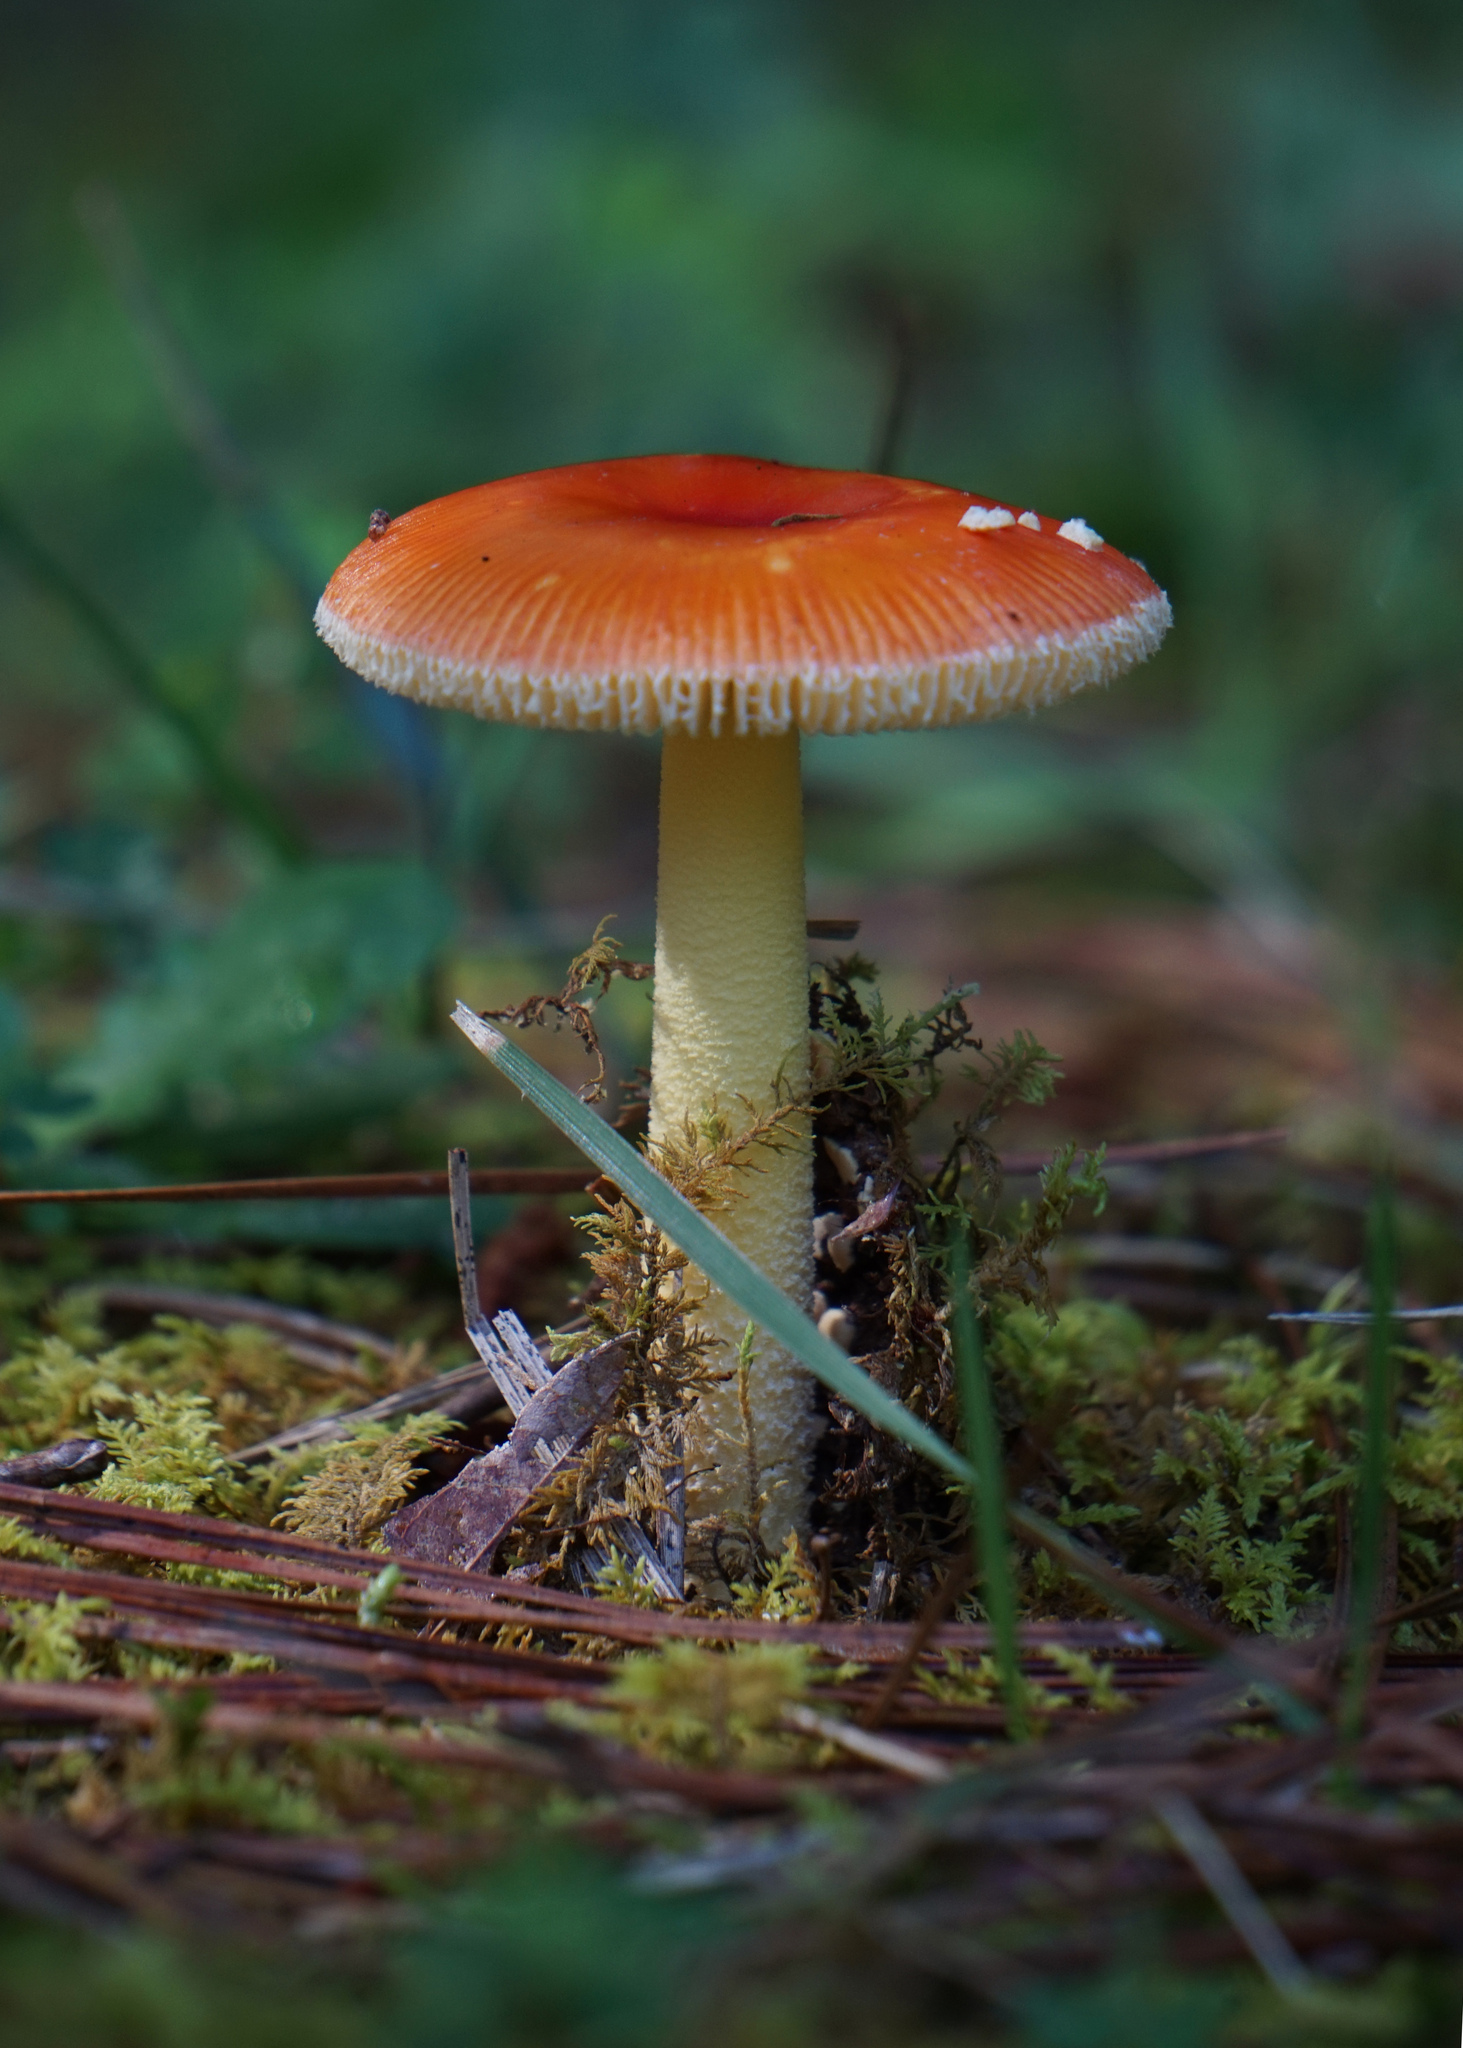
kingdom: Fungi
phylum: Basidiomycota
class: Agaricomycetes
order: Agaricales
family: Amanitaceae
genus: Amanita
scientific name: Amanita parcivolvata
